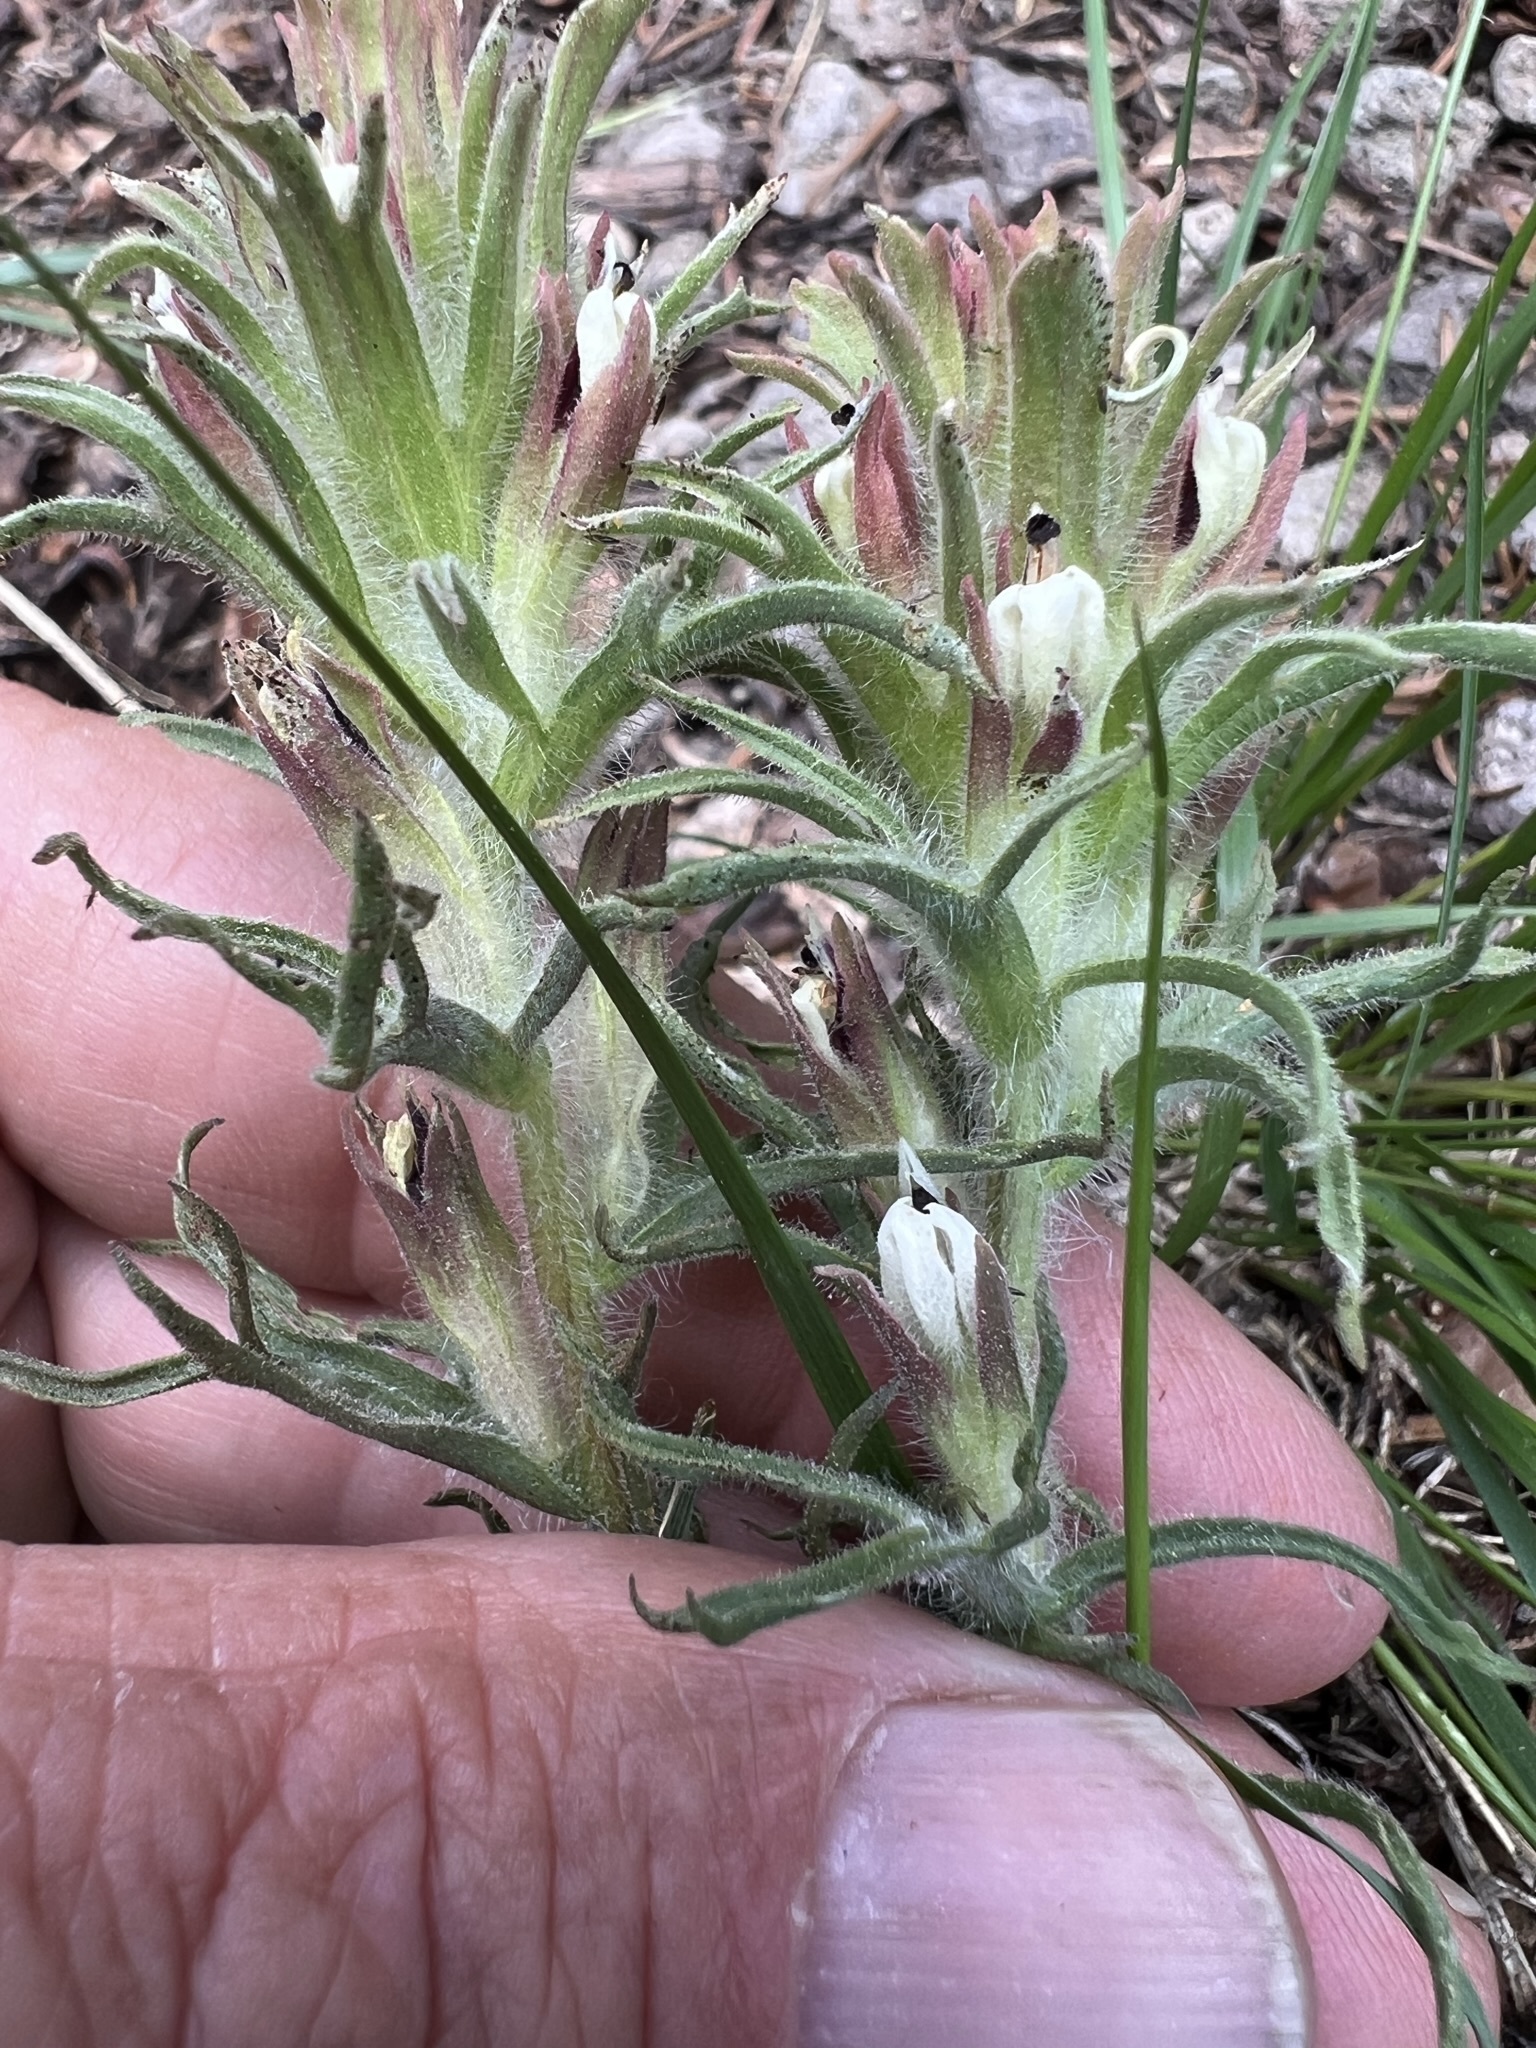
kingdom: Plantae
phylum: Tracheophyta
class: Magnoliopsida
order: Lamiales
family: Orobanchaceae
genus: Castilleja
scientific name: Castilleja nana
